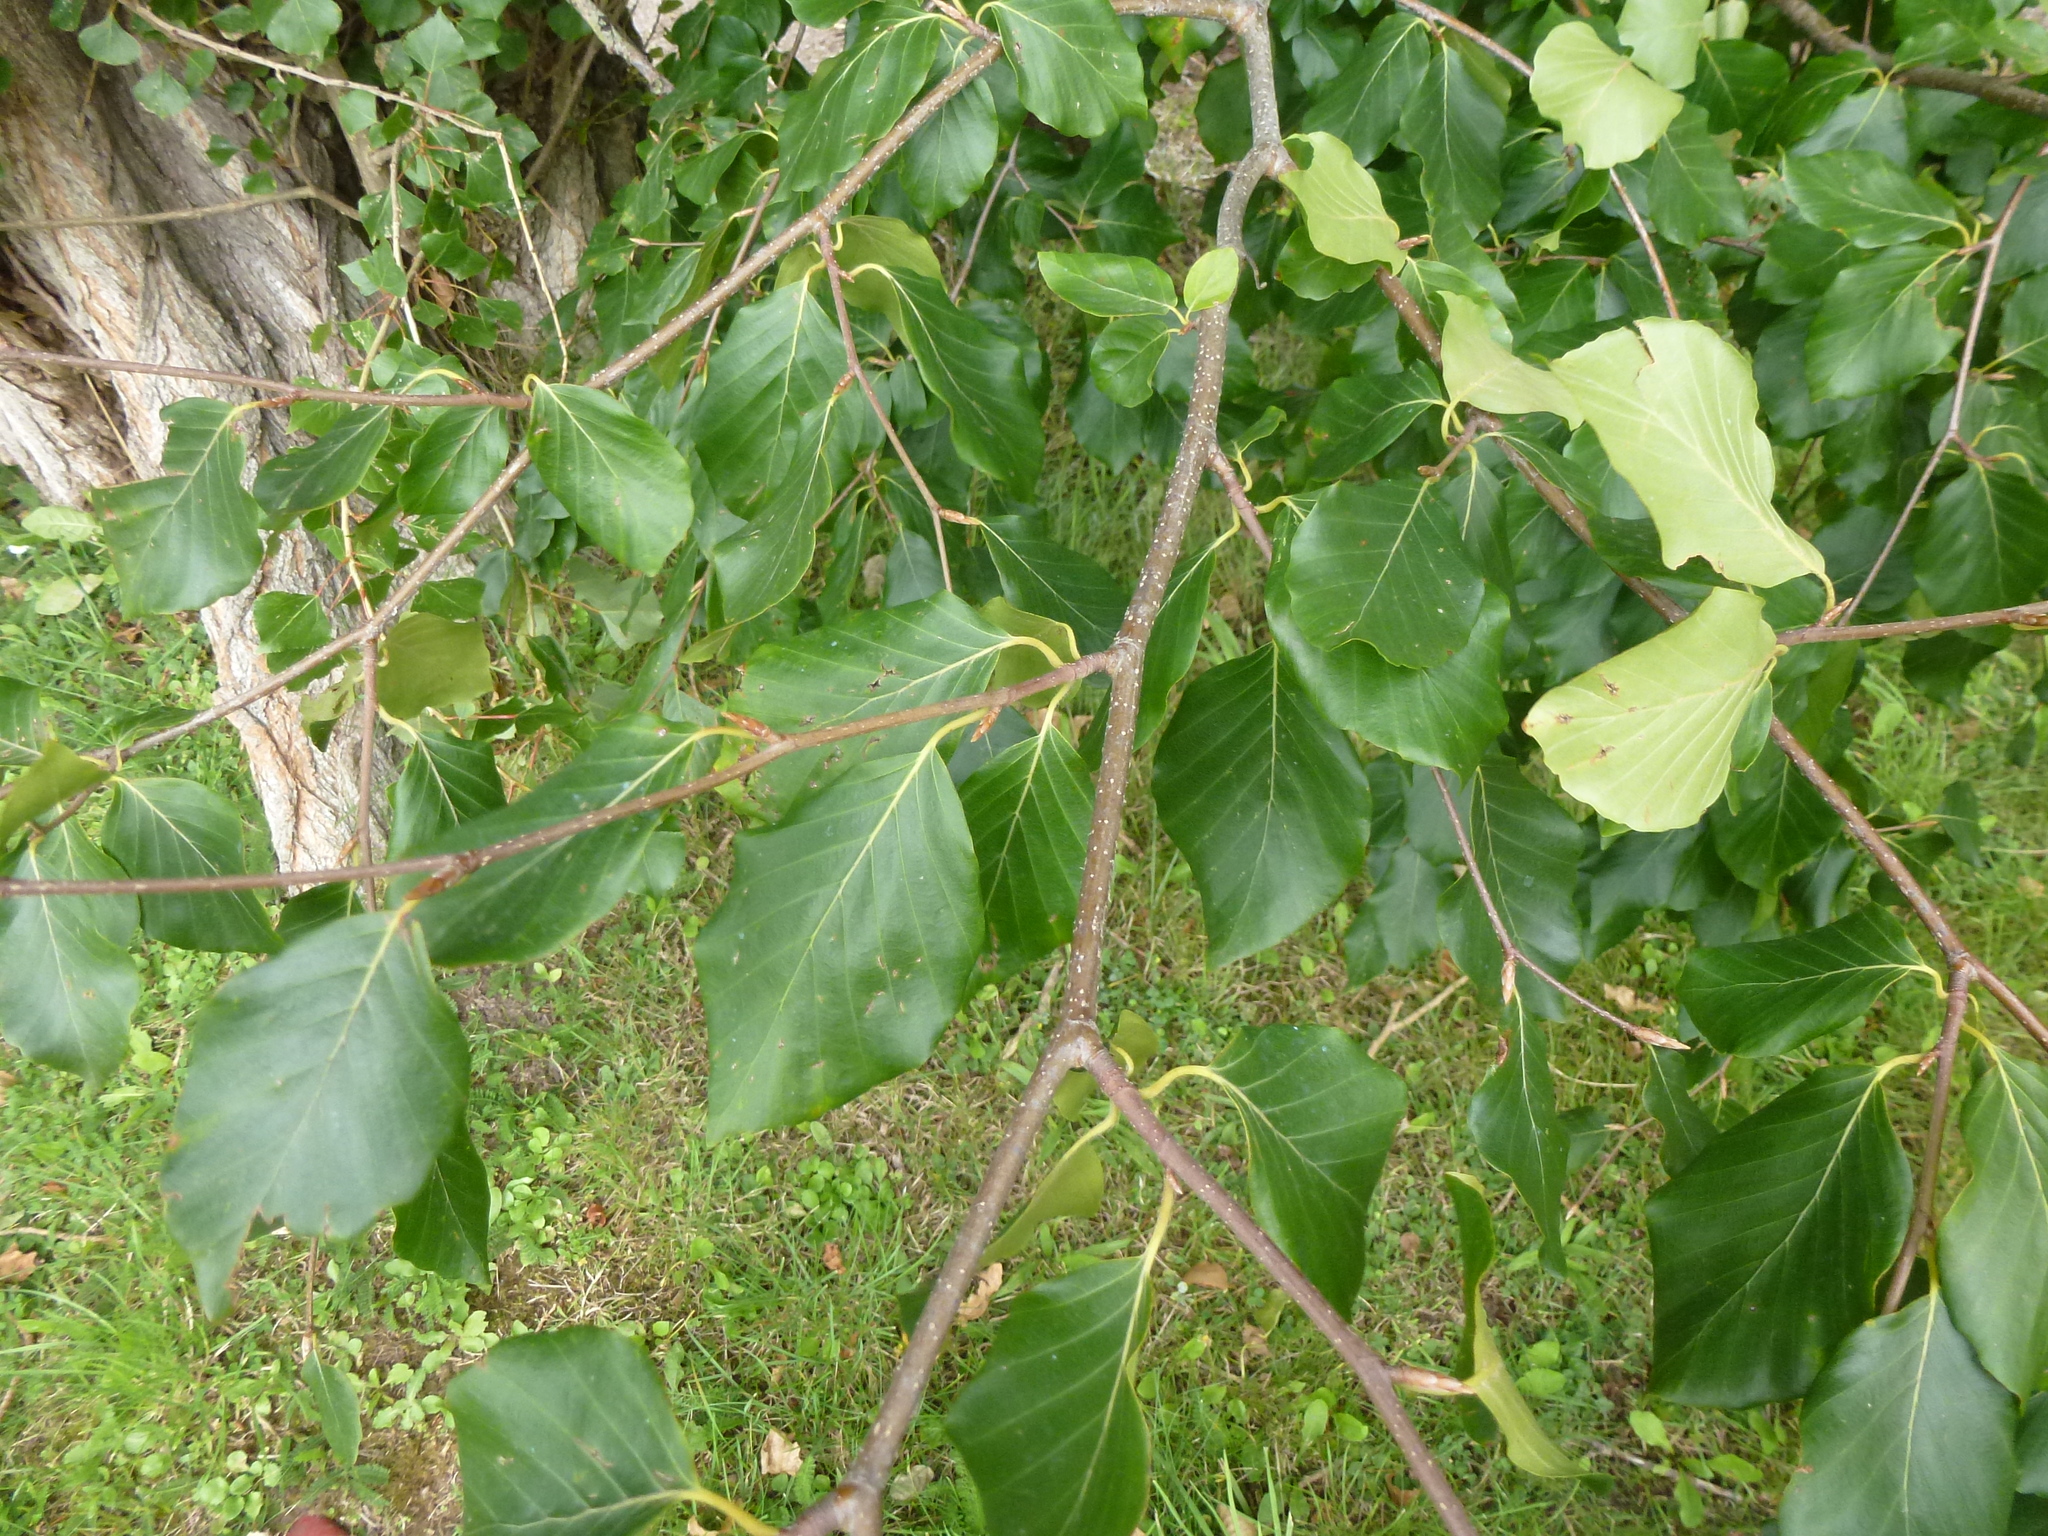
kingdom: Plantae
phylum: Tracheophyta
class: Magnoliopsida
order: Fagales
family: Fagaceae
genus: Fagus
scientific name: Fagus sylvatica
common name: Beech
